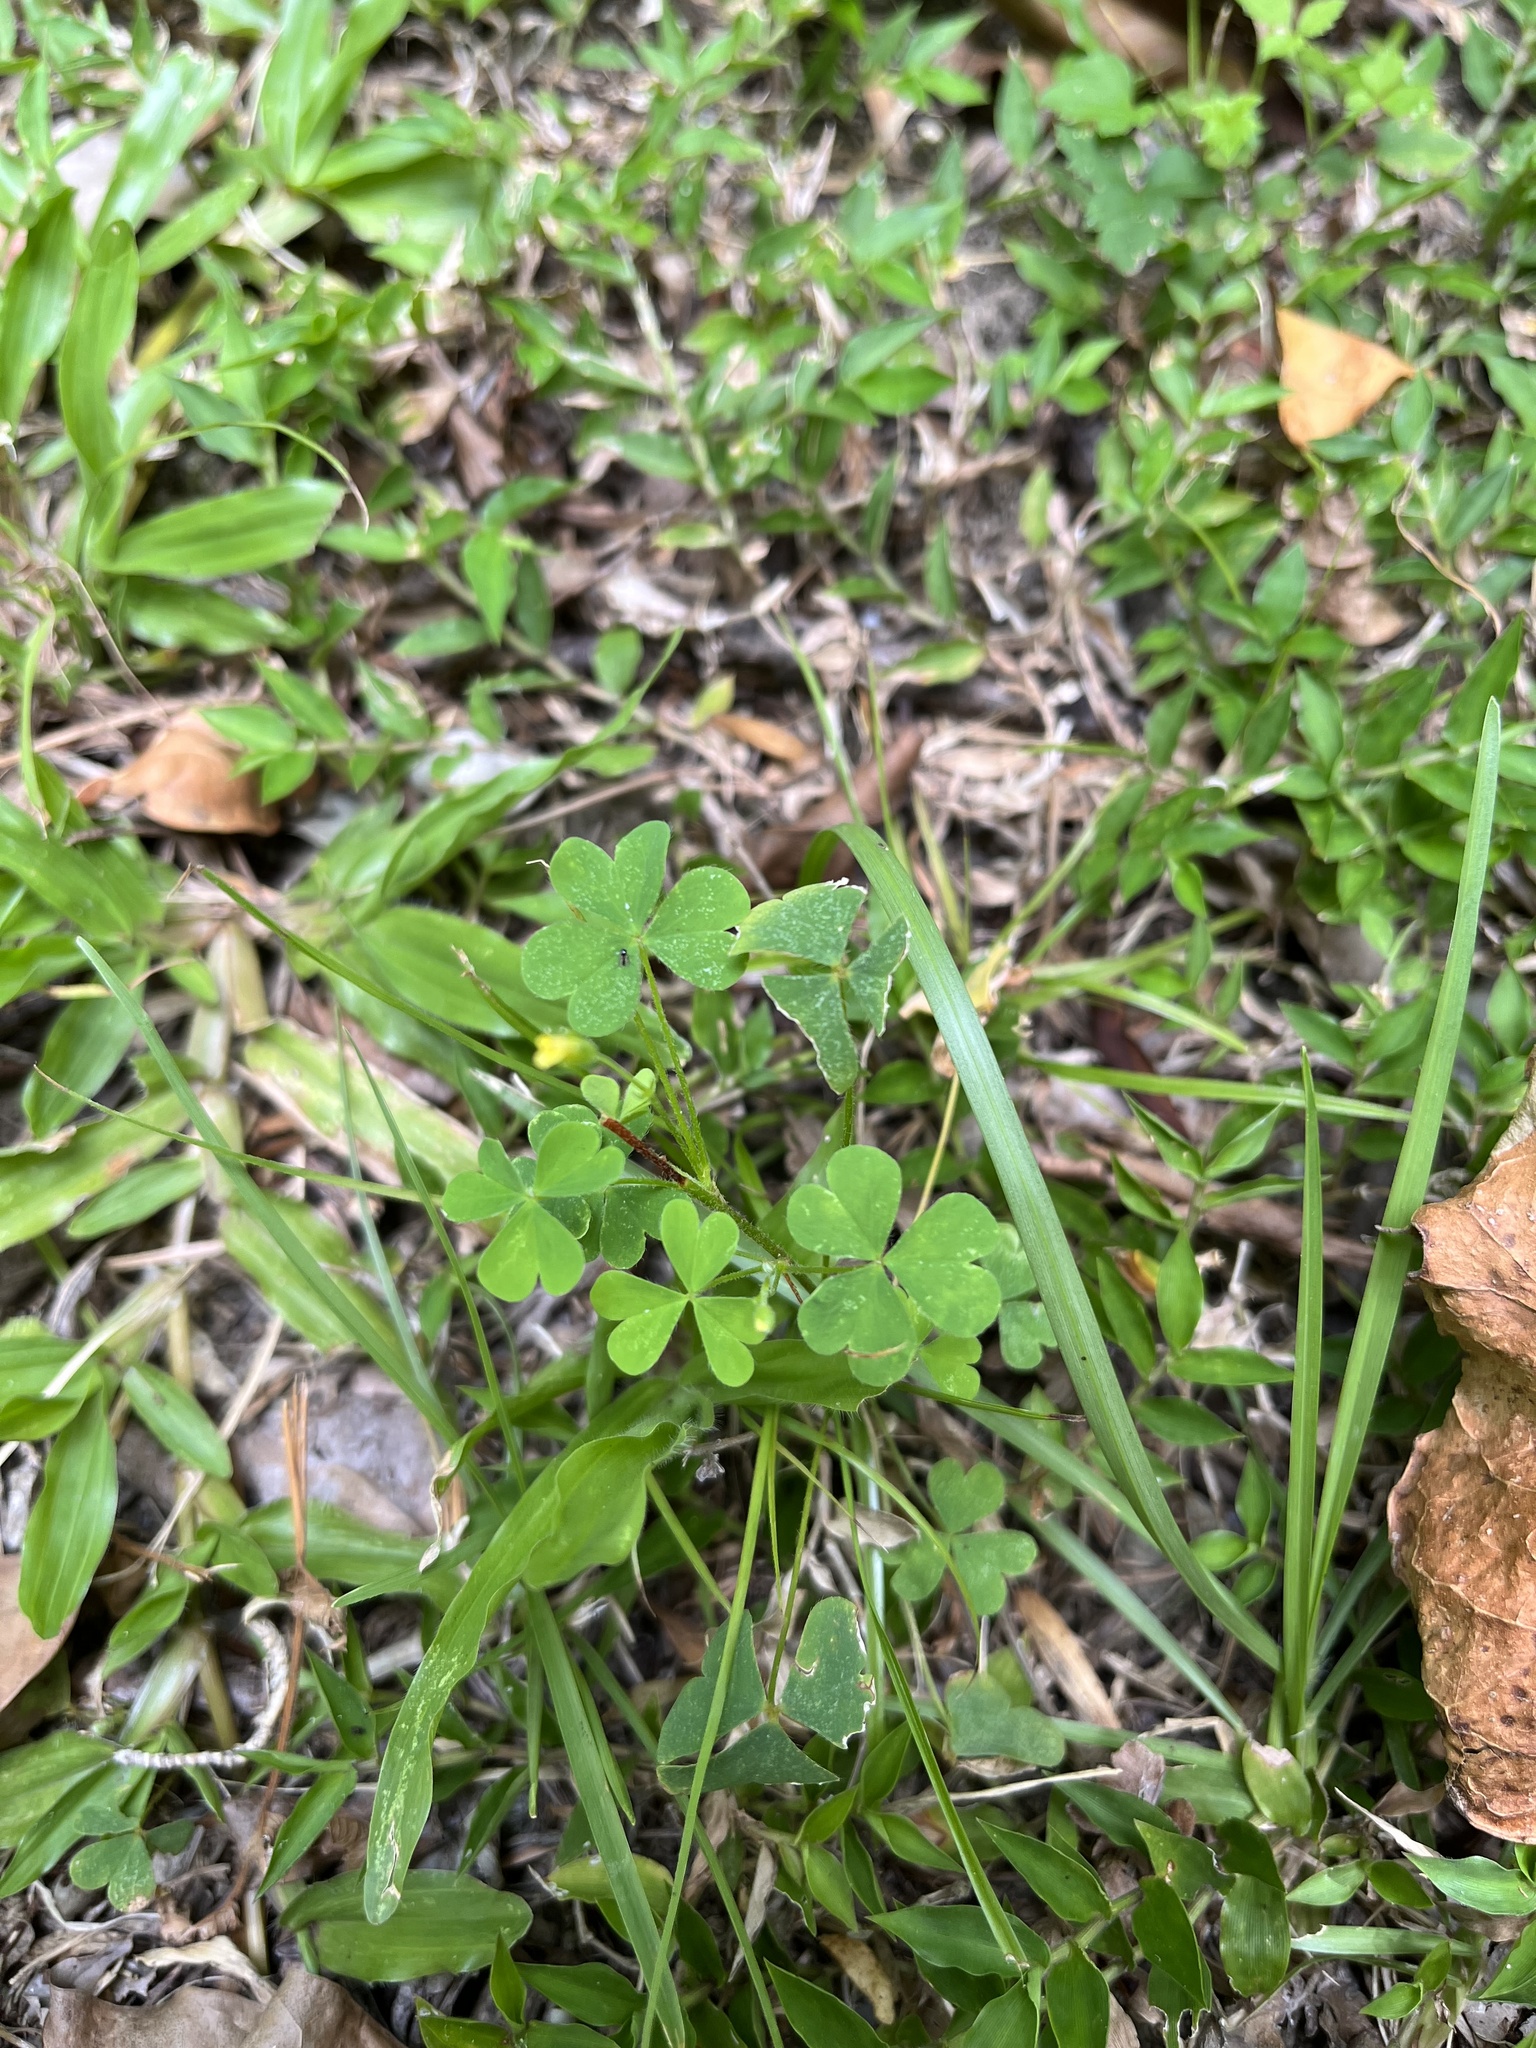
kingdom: Plantae
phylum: Tracheophyta
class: Magnoliopsida
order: Oxalidales
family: Oxalidaceae
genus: Oxalis
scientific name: Oxalis corniculata
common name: Procumbent yellow-sorrel
